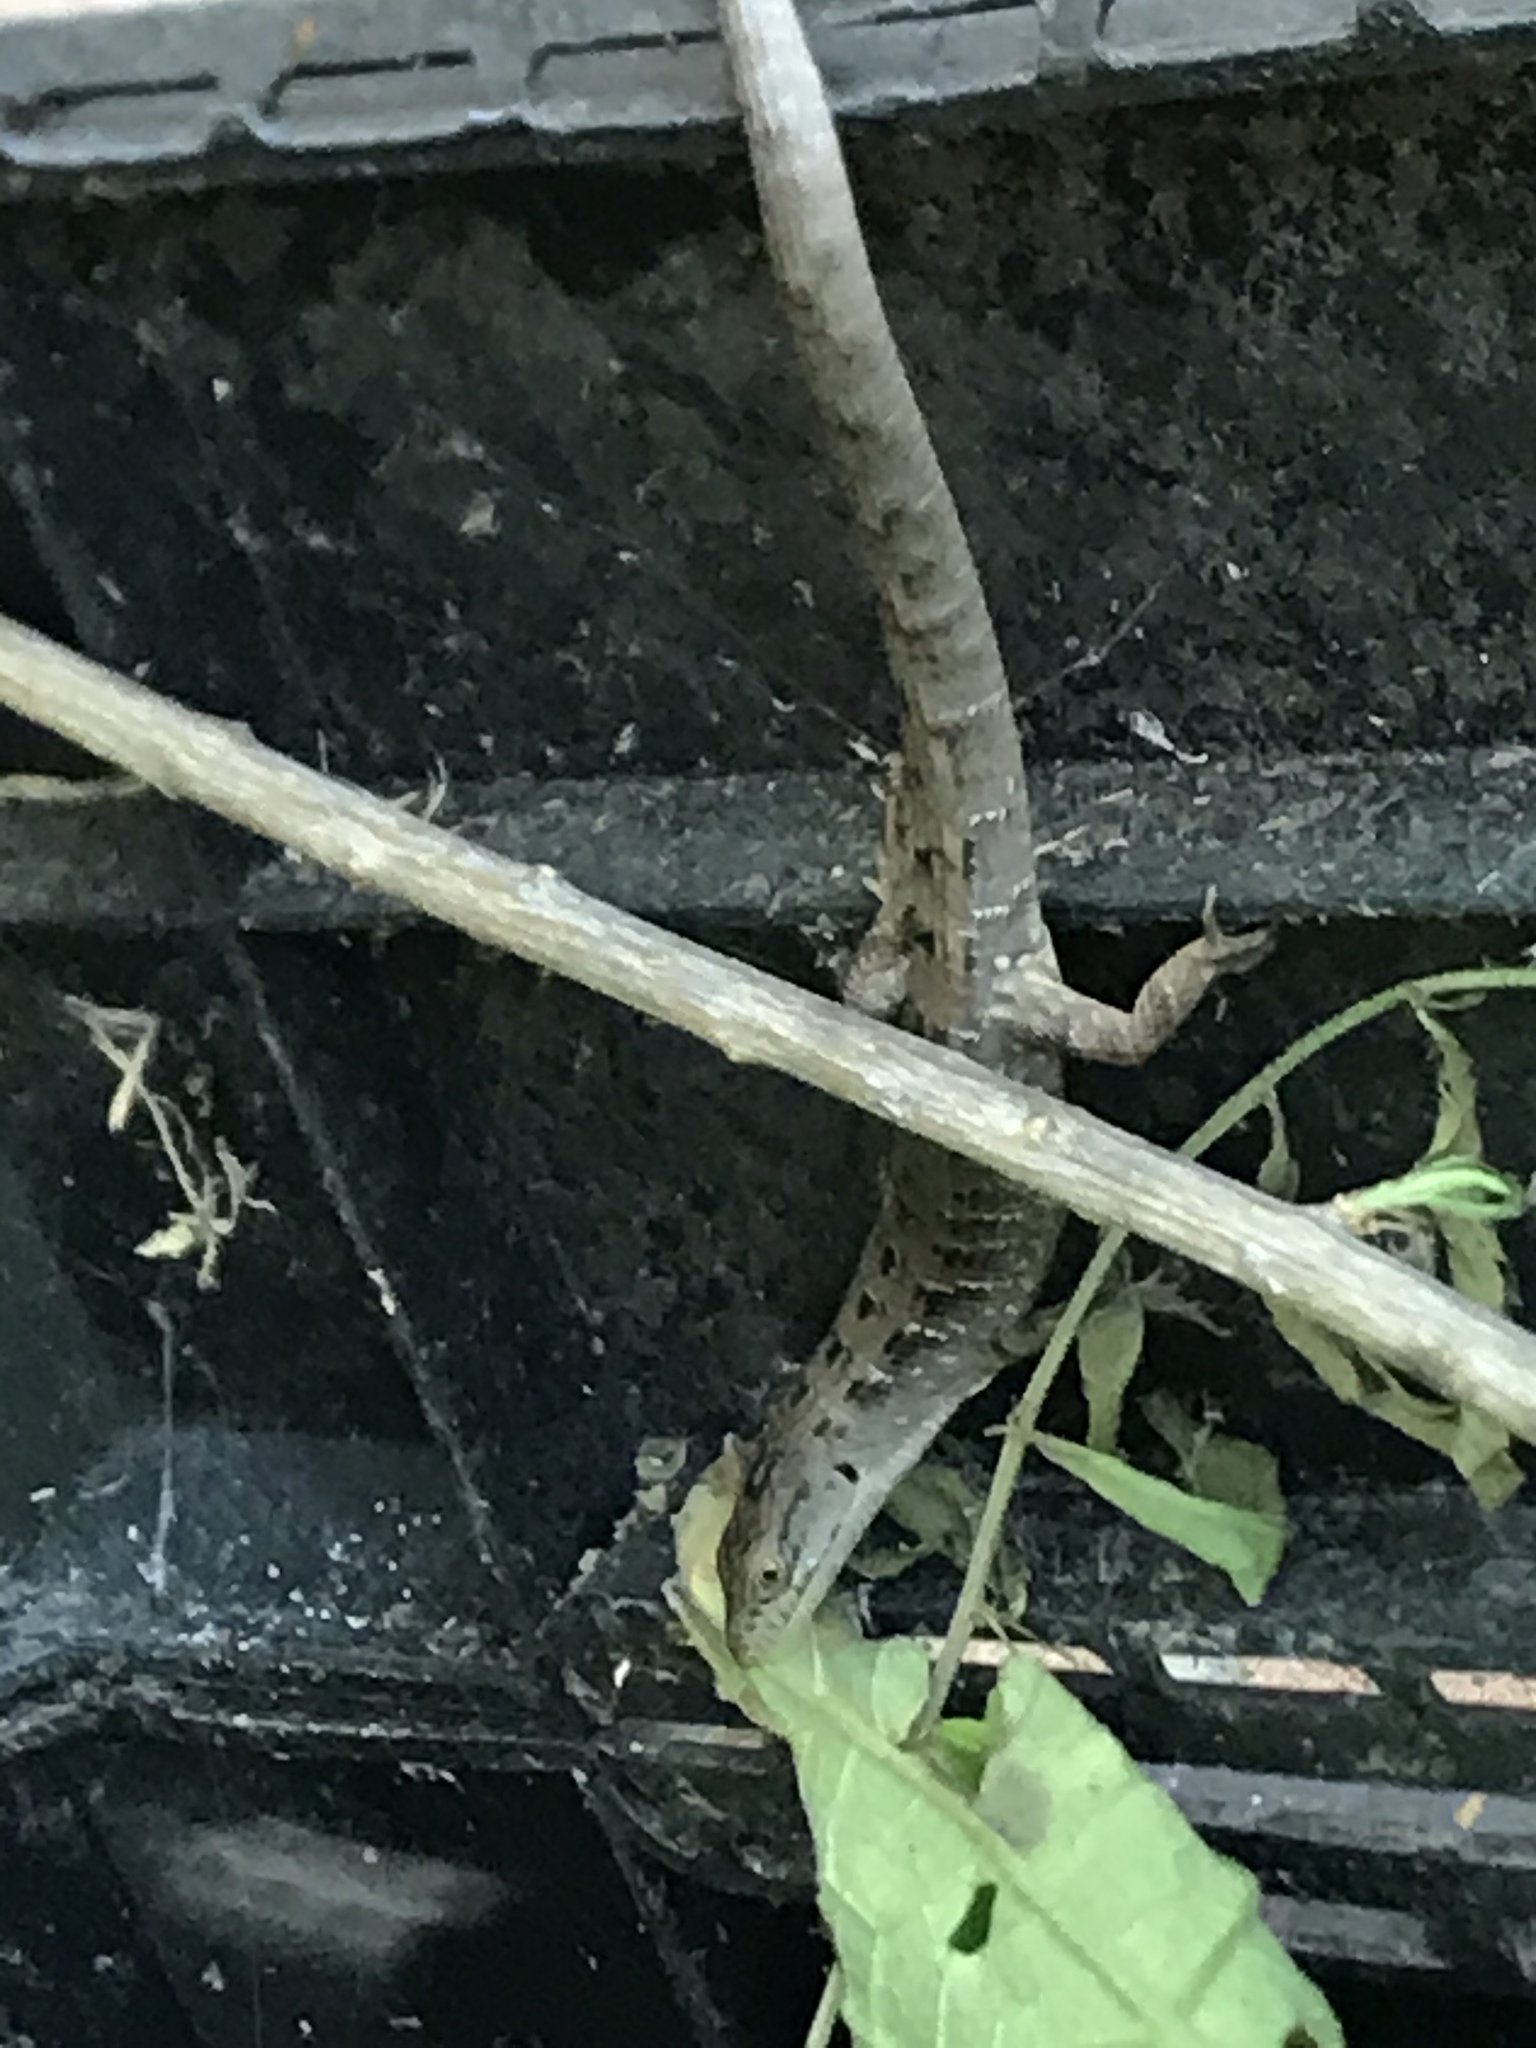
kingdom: Animalia
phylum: Chordata
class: Squamata
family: Anguidae
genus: Elgaria
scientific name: Elgaria multicarinata
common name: Southern alligator lizard
